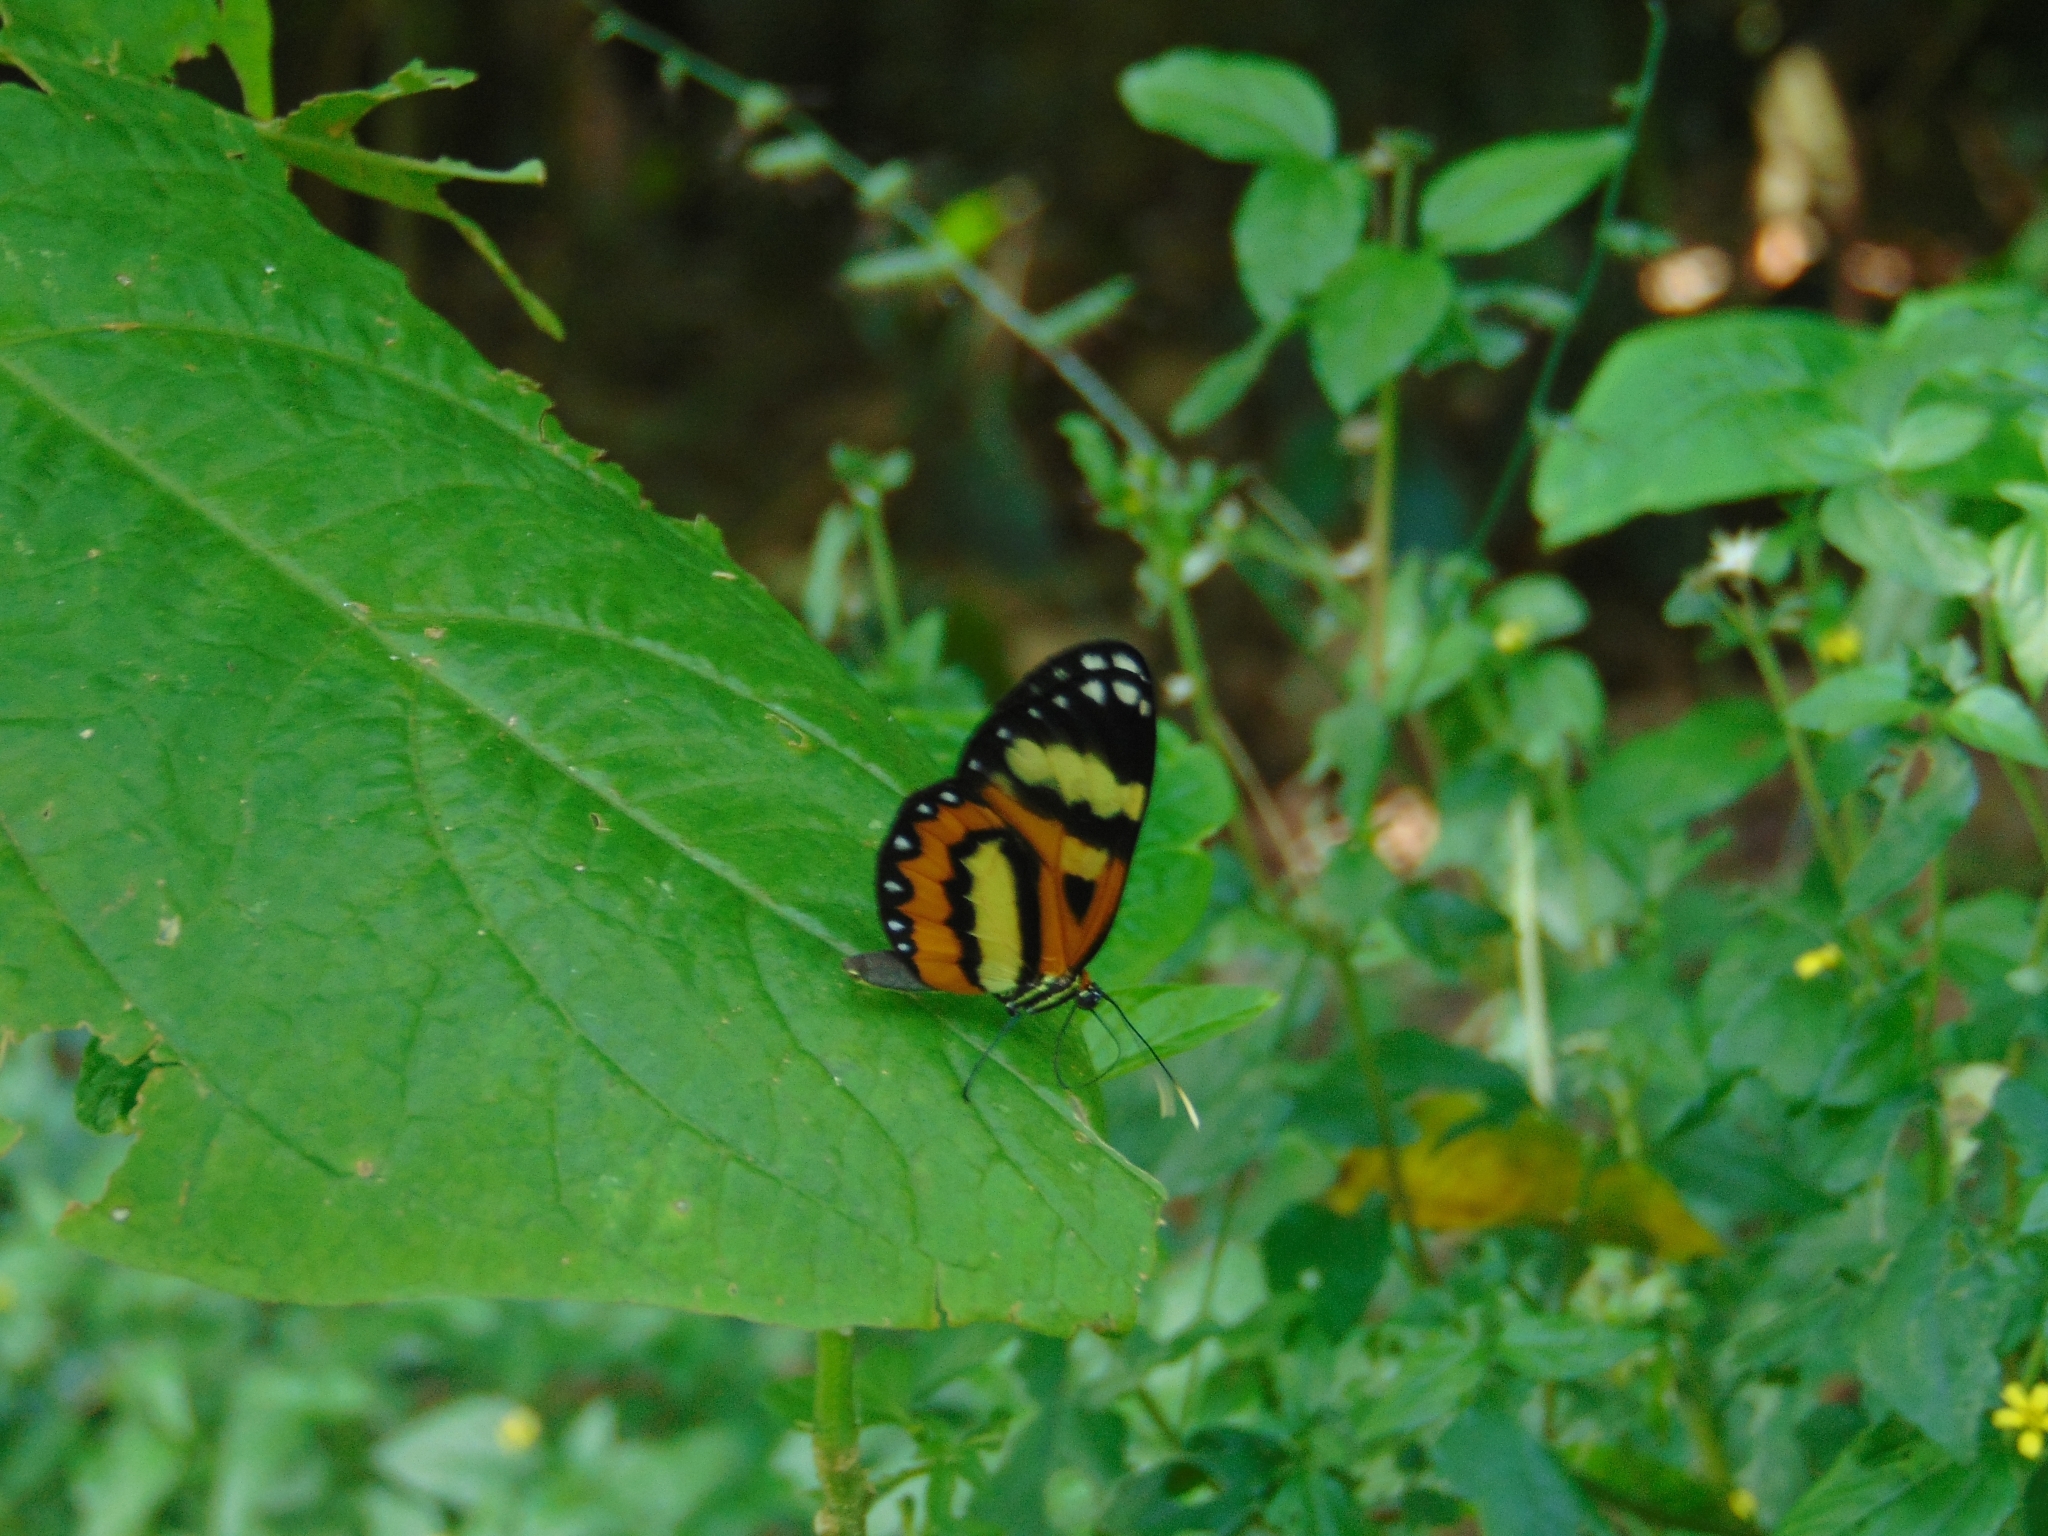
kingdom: Animalia
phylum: Arthropoda
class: Insecta
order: Lepidoptera
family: Nymphalidae
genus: Placidina
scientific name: Placidina euryanassa
